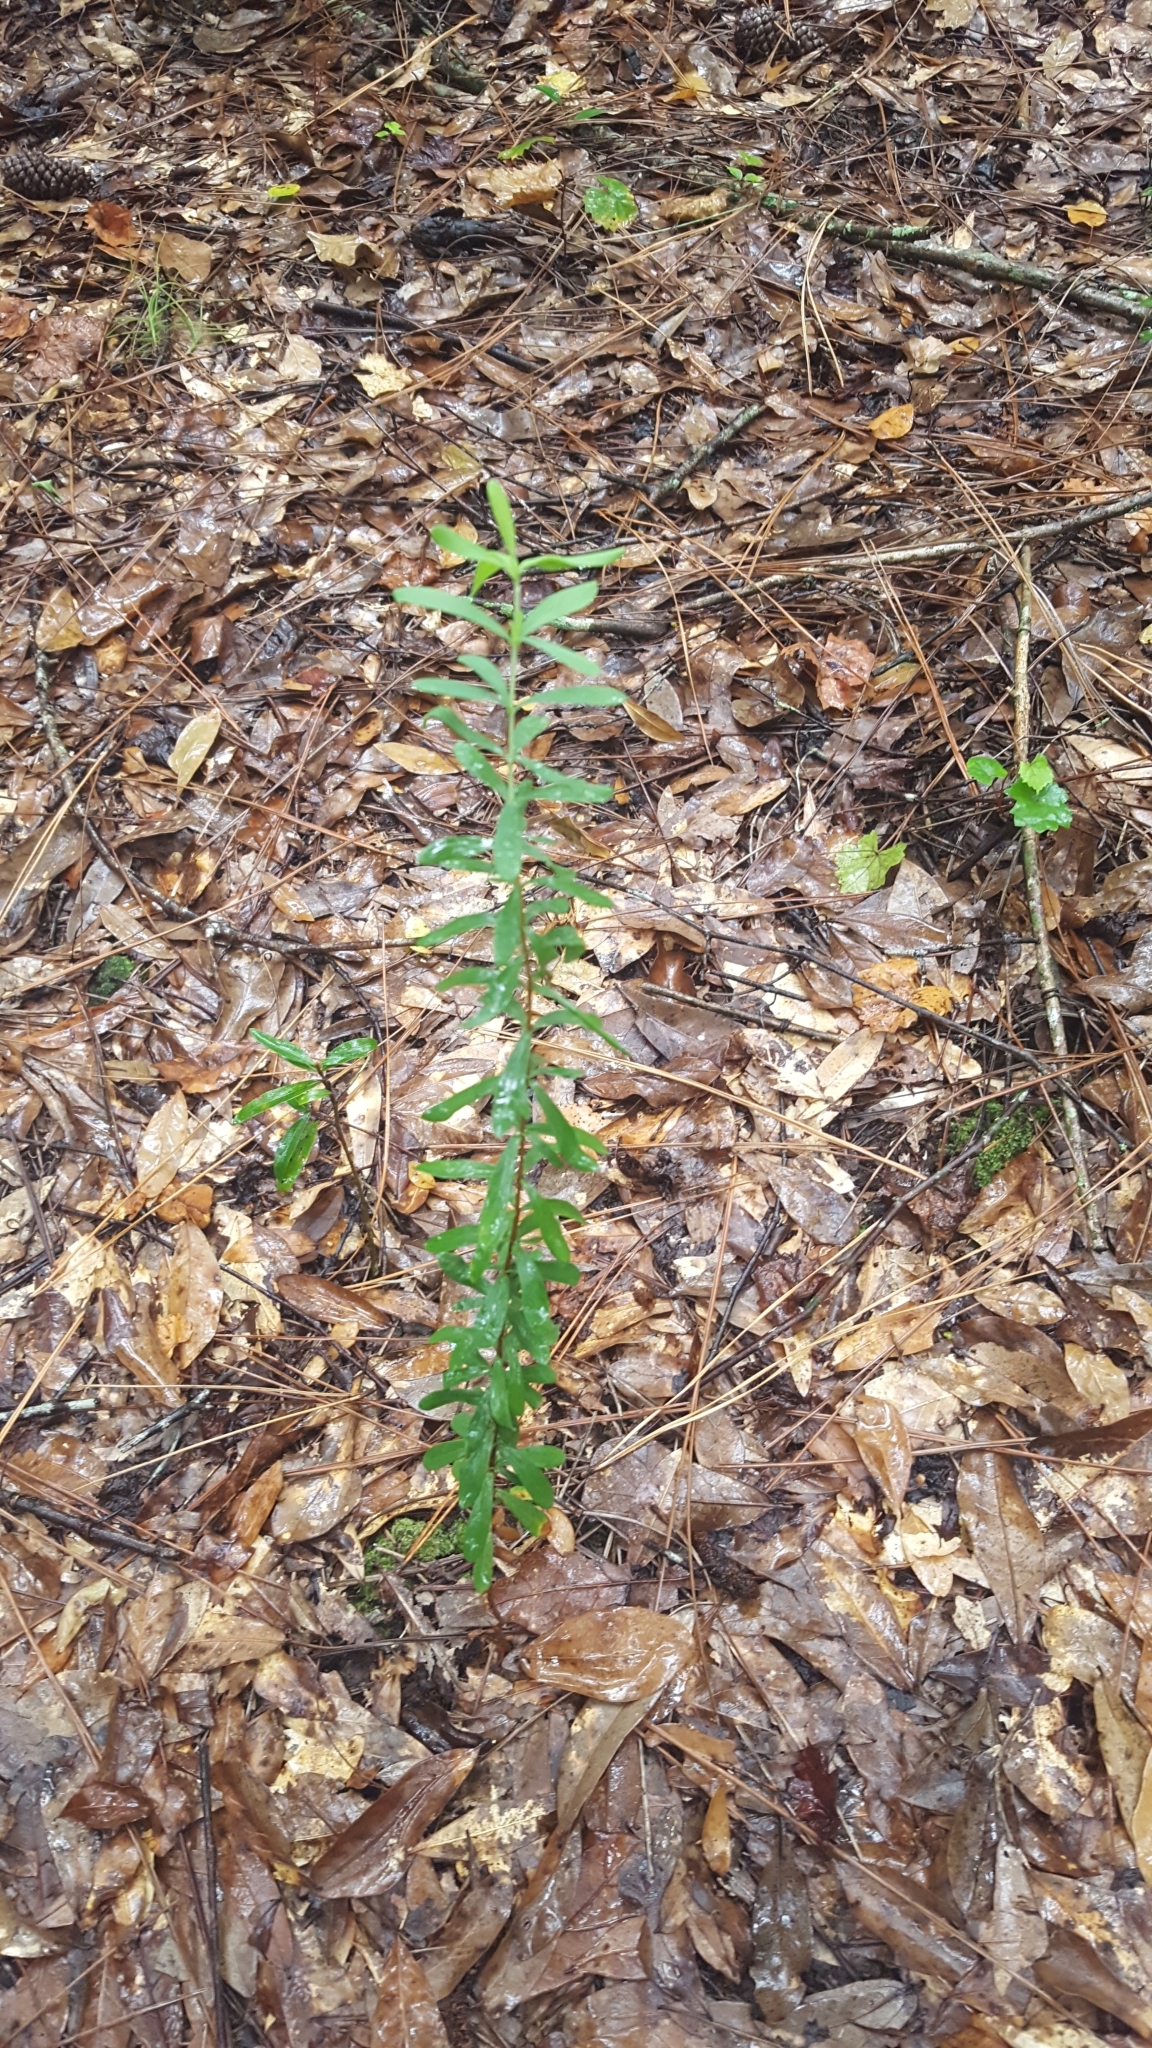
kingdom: Plantae
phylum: Tracheophyta
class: Magnoliopsida
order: Malpighiales
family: Hypericaceae
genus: Hypericum
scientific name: Hypericum hypericoides
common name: St. andrew's cross
